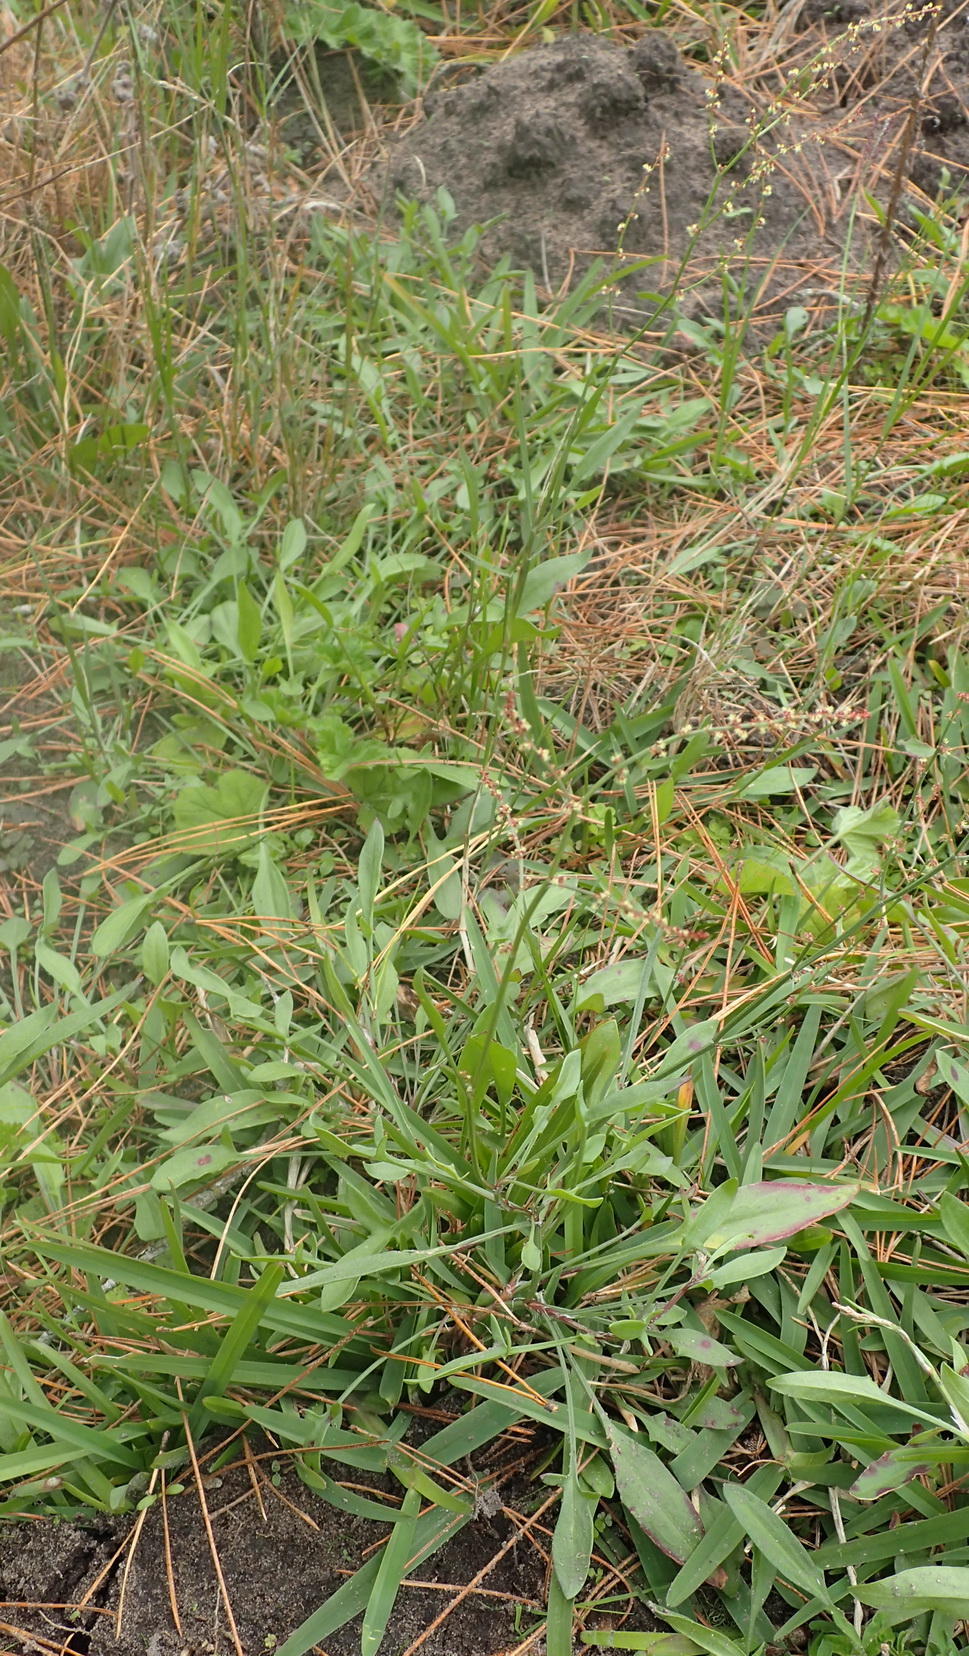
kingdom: Plantae
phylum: Tracheophyta
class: Magnoliopsida
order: Caryophyllales
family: Polygonaceae
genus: Rumex
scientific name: Rumex acetosella
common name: Common sheep sorrel
